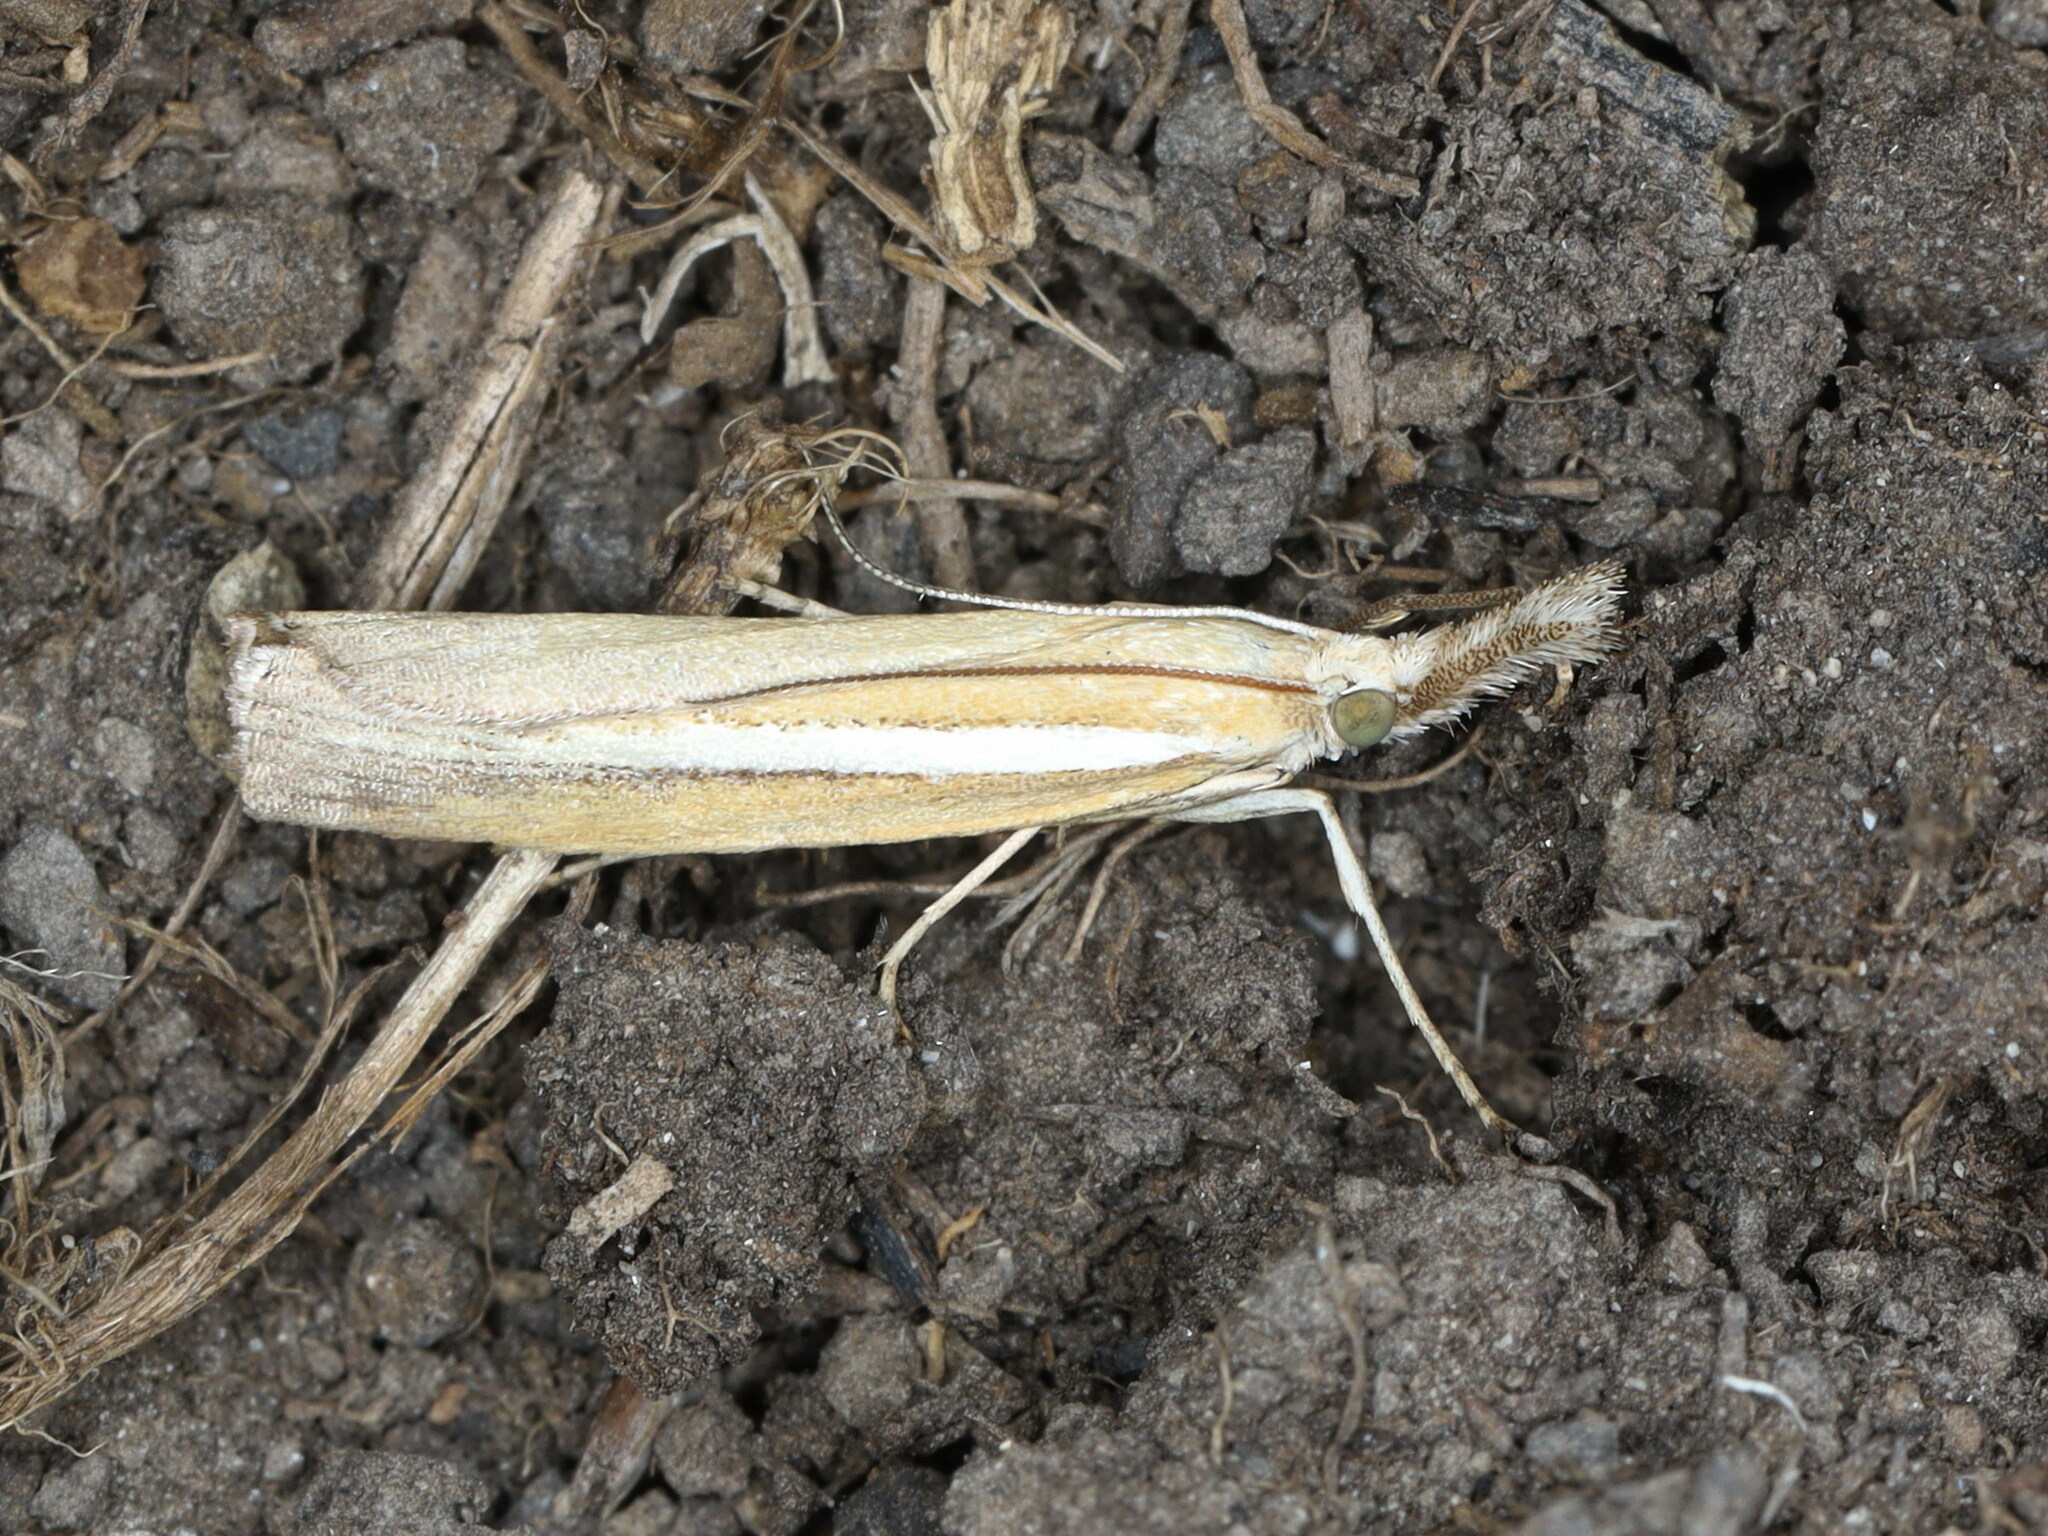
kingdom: Animalia
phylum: Arthropoda
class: Insecta
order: Lepidoptera
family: Crambidae
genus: Agriphila
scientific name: Agriphila selasella
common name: Pale-streak grass-veneer
